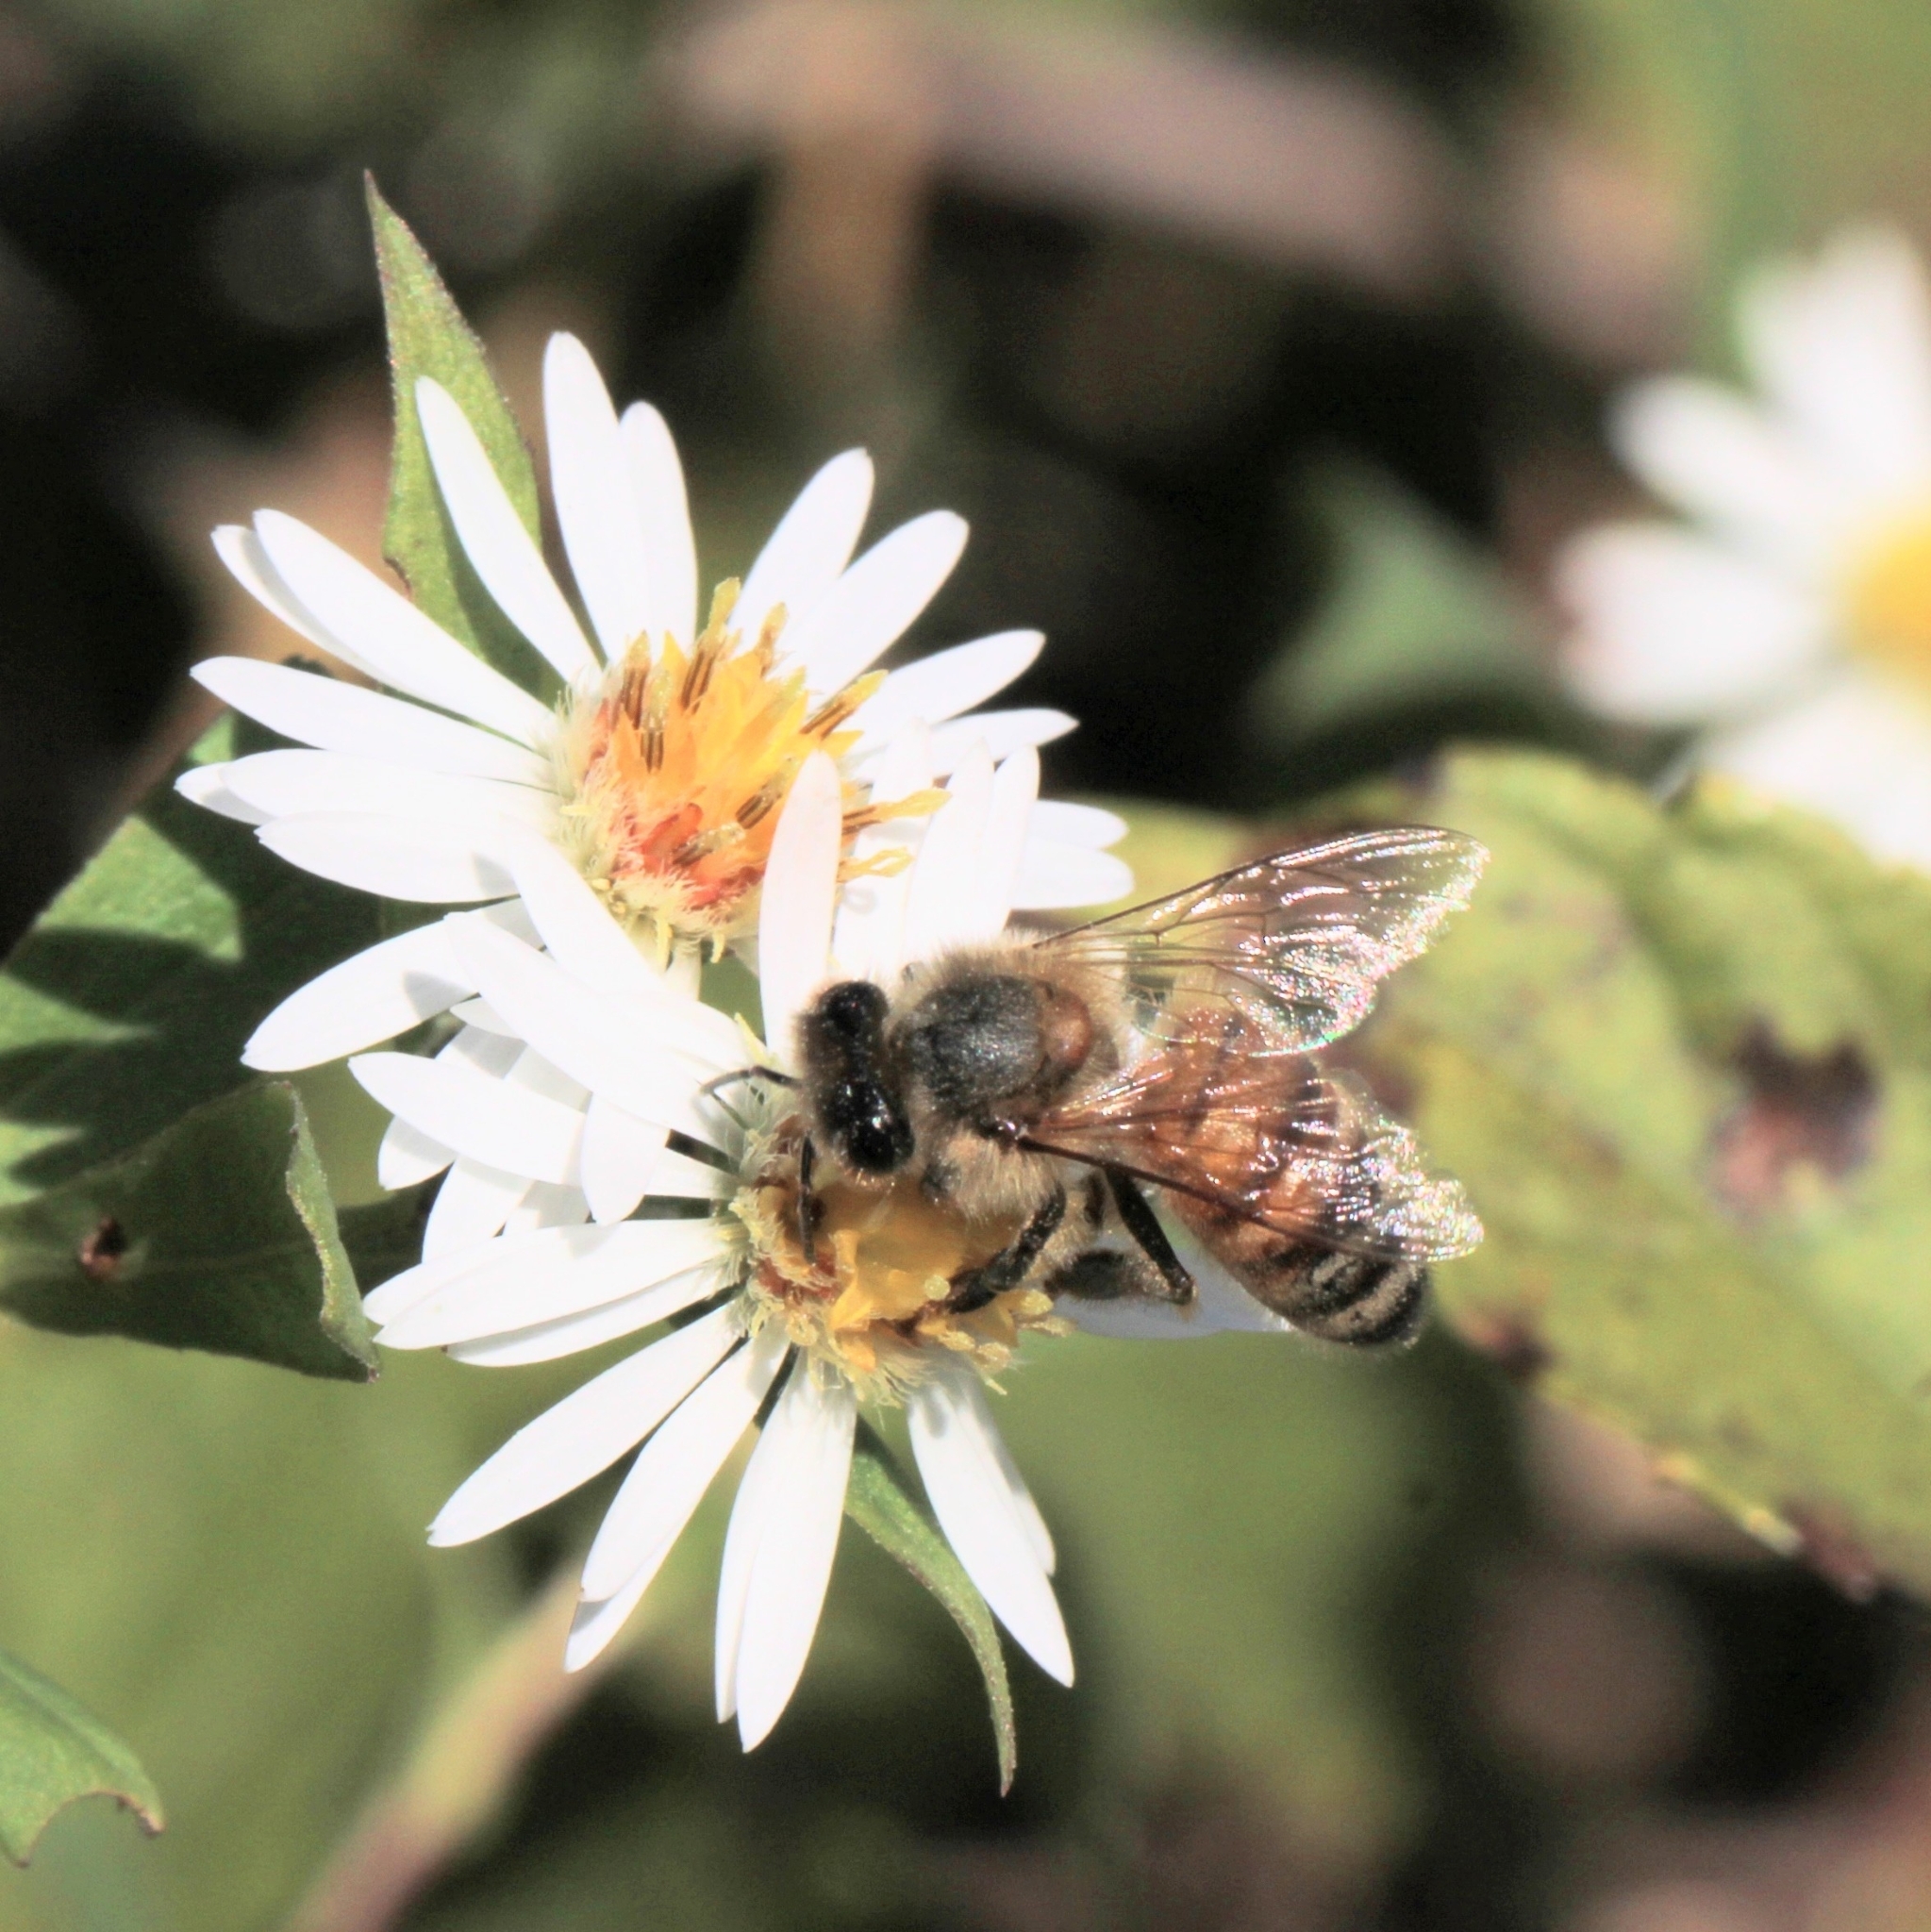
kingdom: Animalia
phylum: Arthropoda
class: Insecta
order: Hymenoptera
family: Apidae
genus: Apis
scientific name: Apis mellifera
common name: Honey bee
